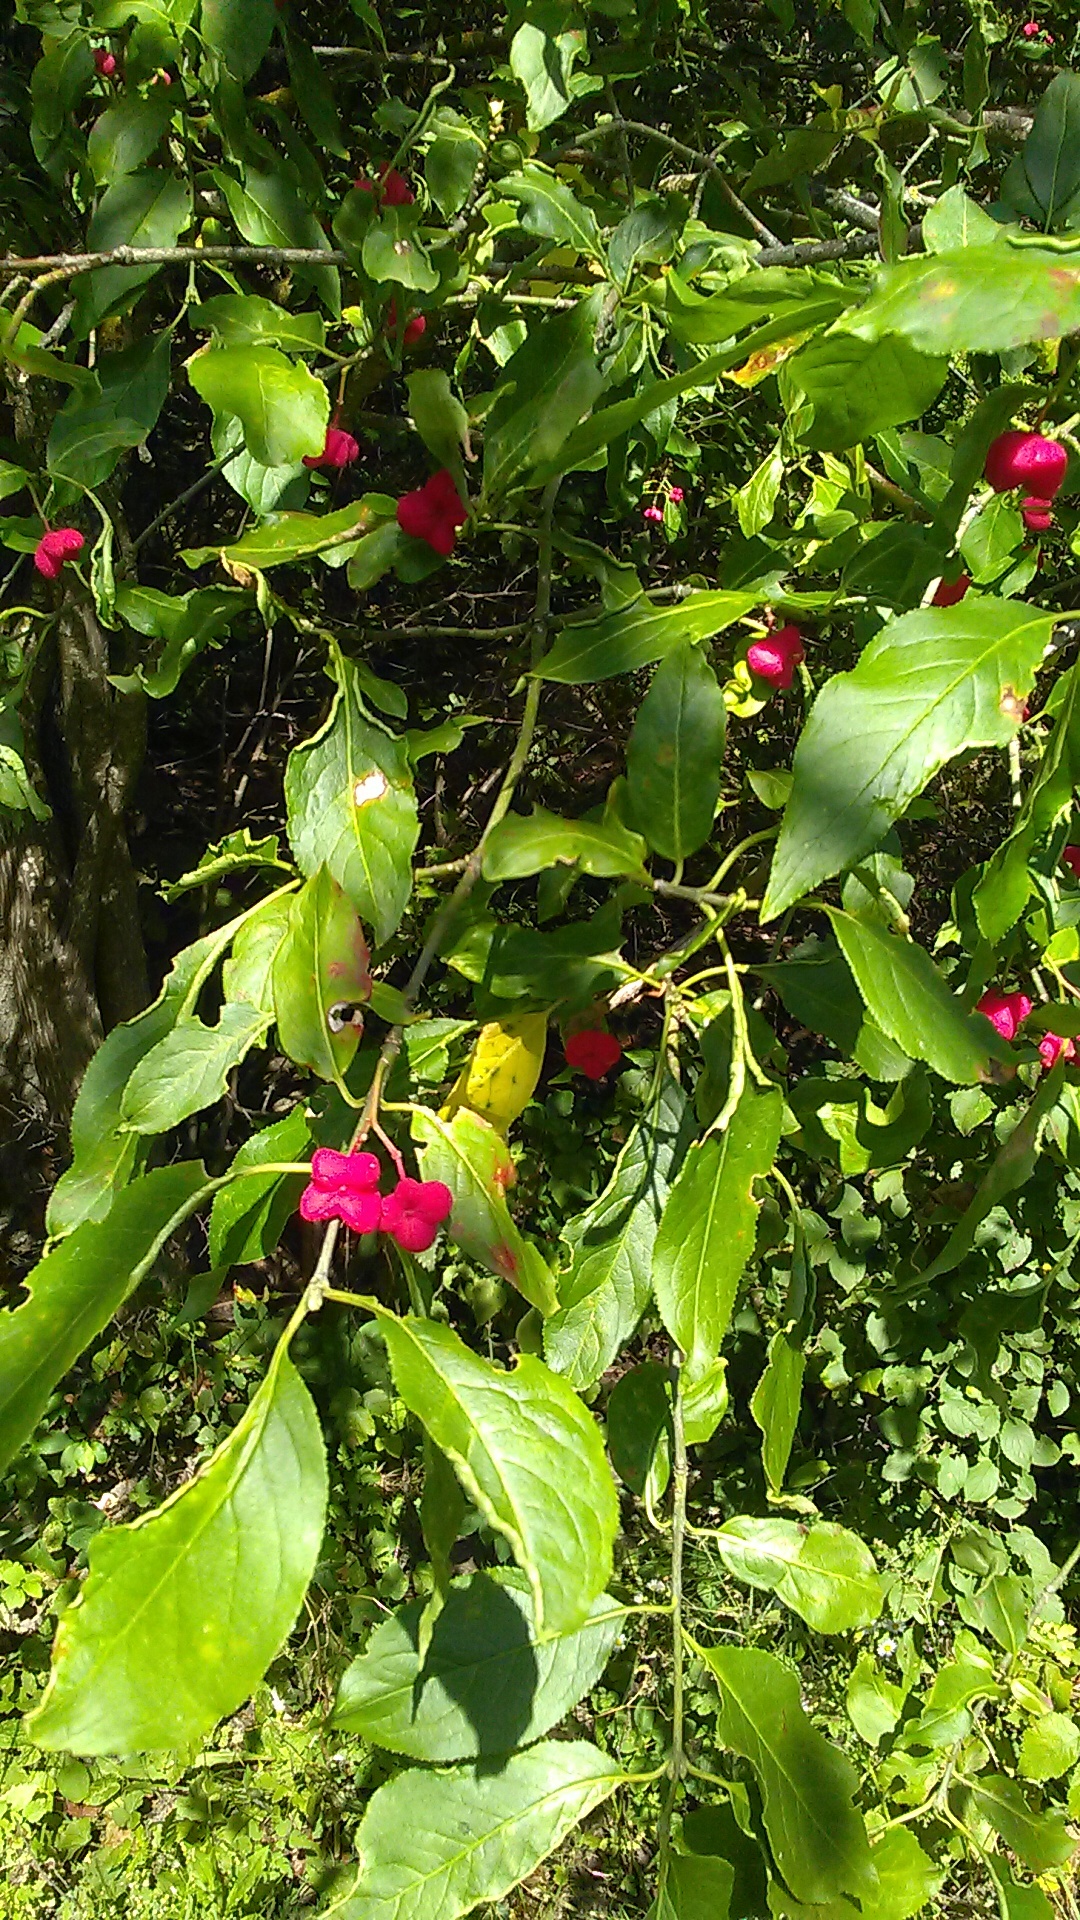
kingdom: Plantae
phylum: Tracheophyta
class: Magnoliopsida
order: Celastrales
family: Celastraceae
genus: Euonymus
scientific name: Euonymus europaeus
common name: Spindle
